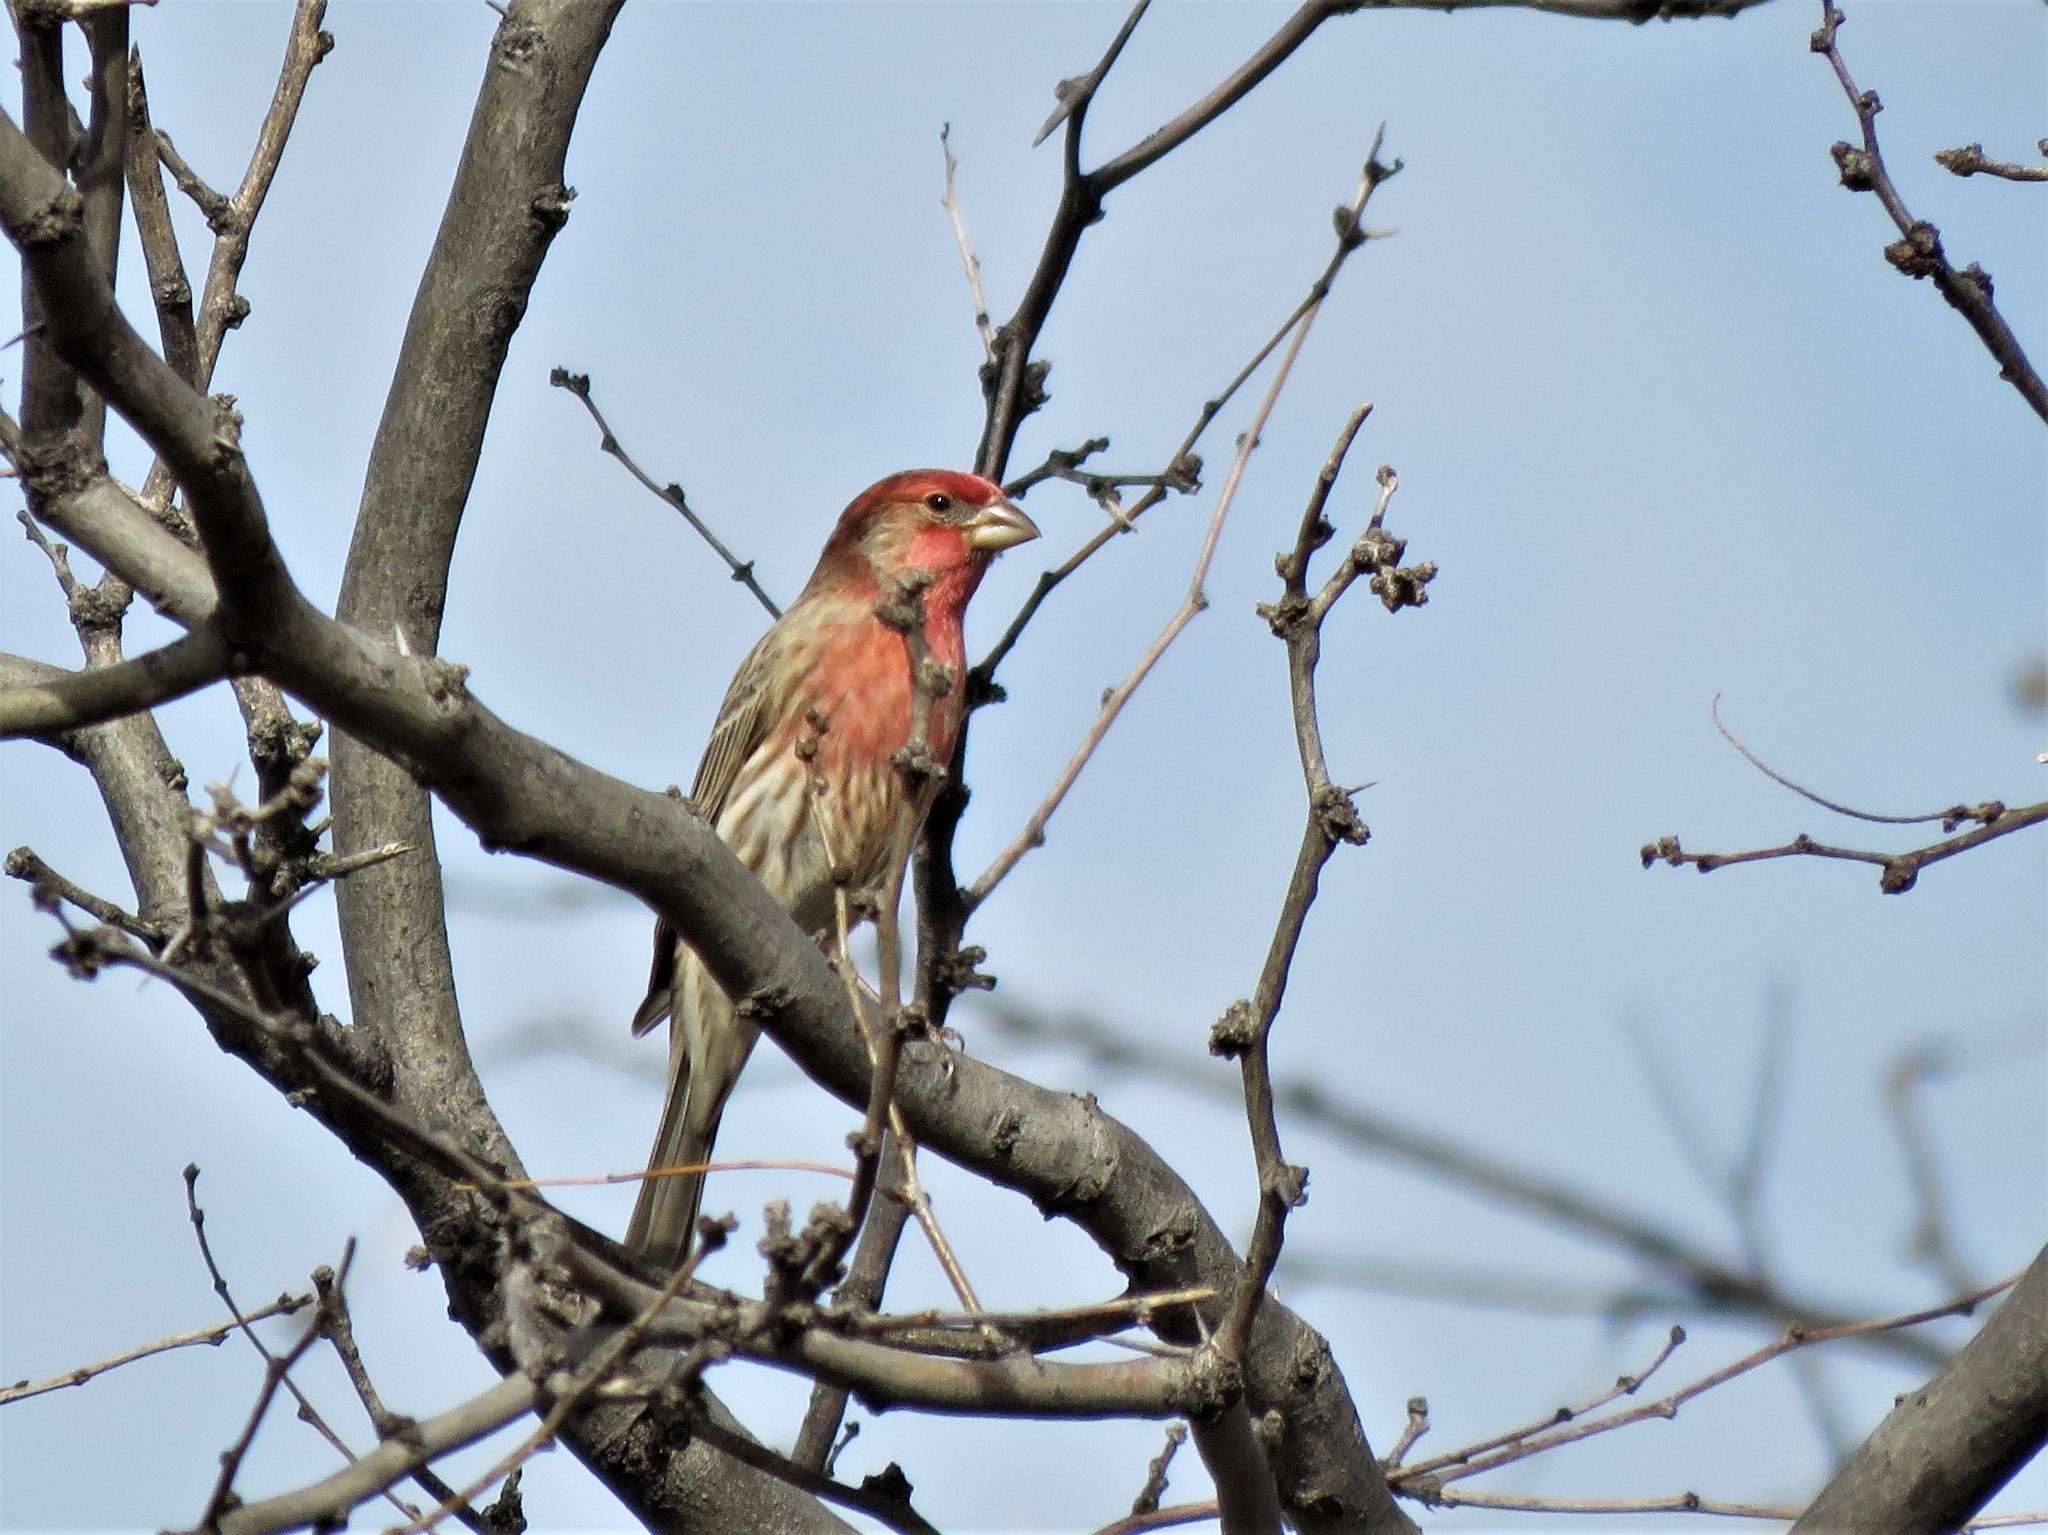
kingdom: Animalia
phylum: Chordata
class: Aves
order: Passeriformes
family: Fringillidae
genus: Haemorhous
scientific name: Haemorhous mexicanus
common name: House finch
